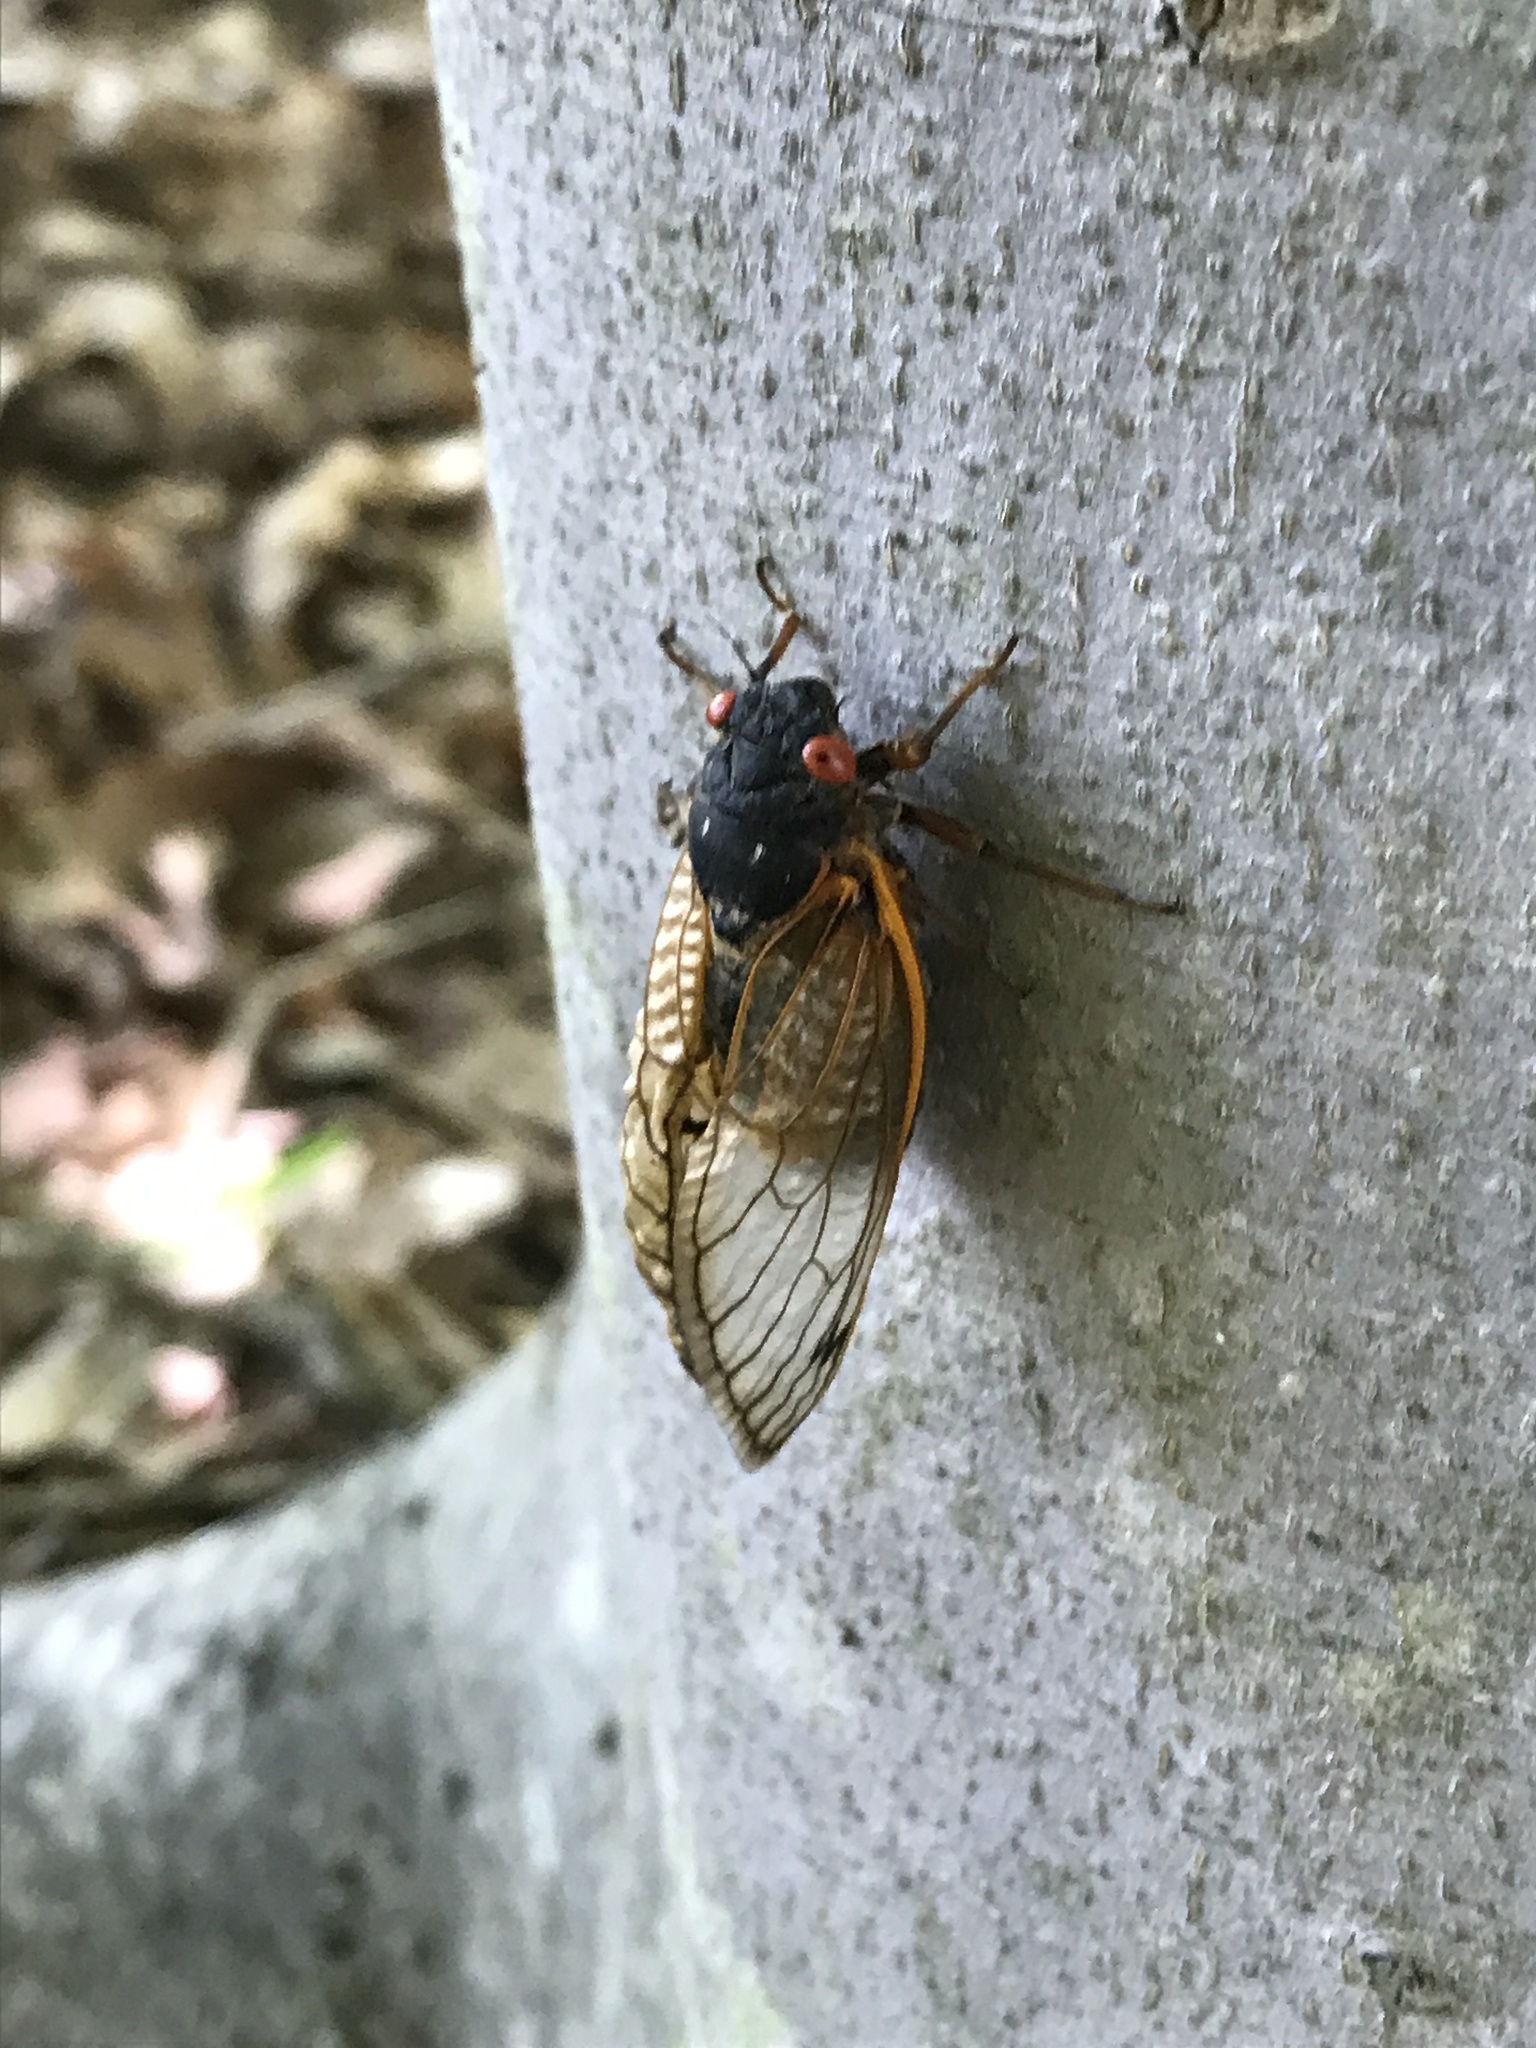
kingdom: Animalia
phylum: Arthropoda
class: Insecta
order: Hemiptera
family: Cicadidae
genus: Magicicada
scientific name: Magicicada septendecim
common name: Periodical cicada
